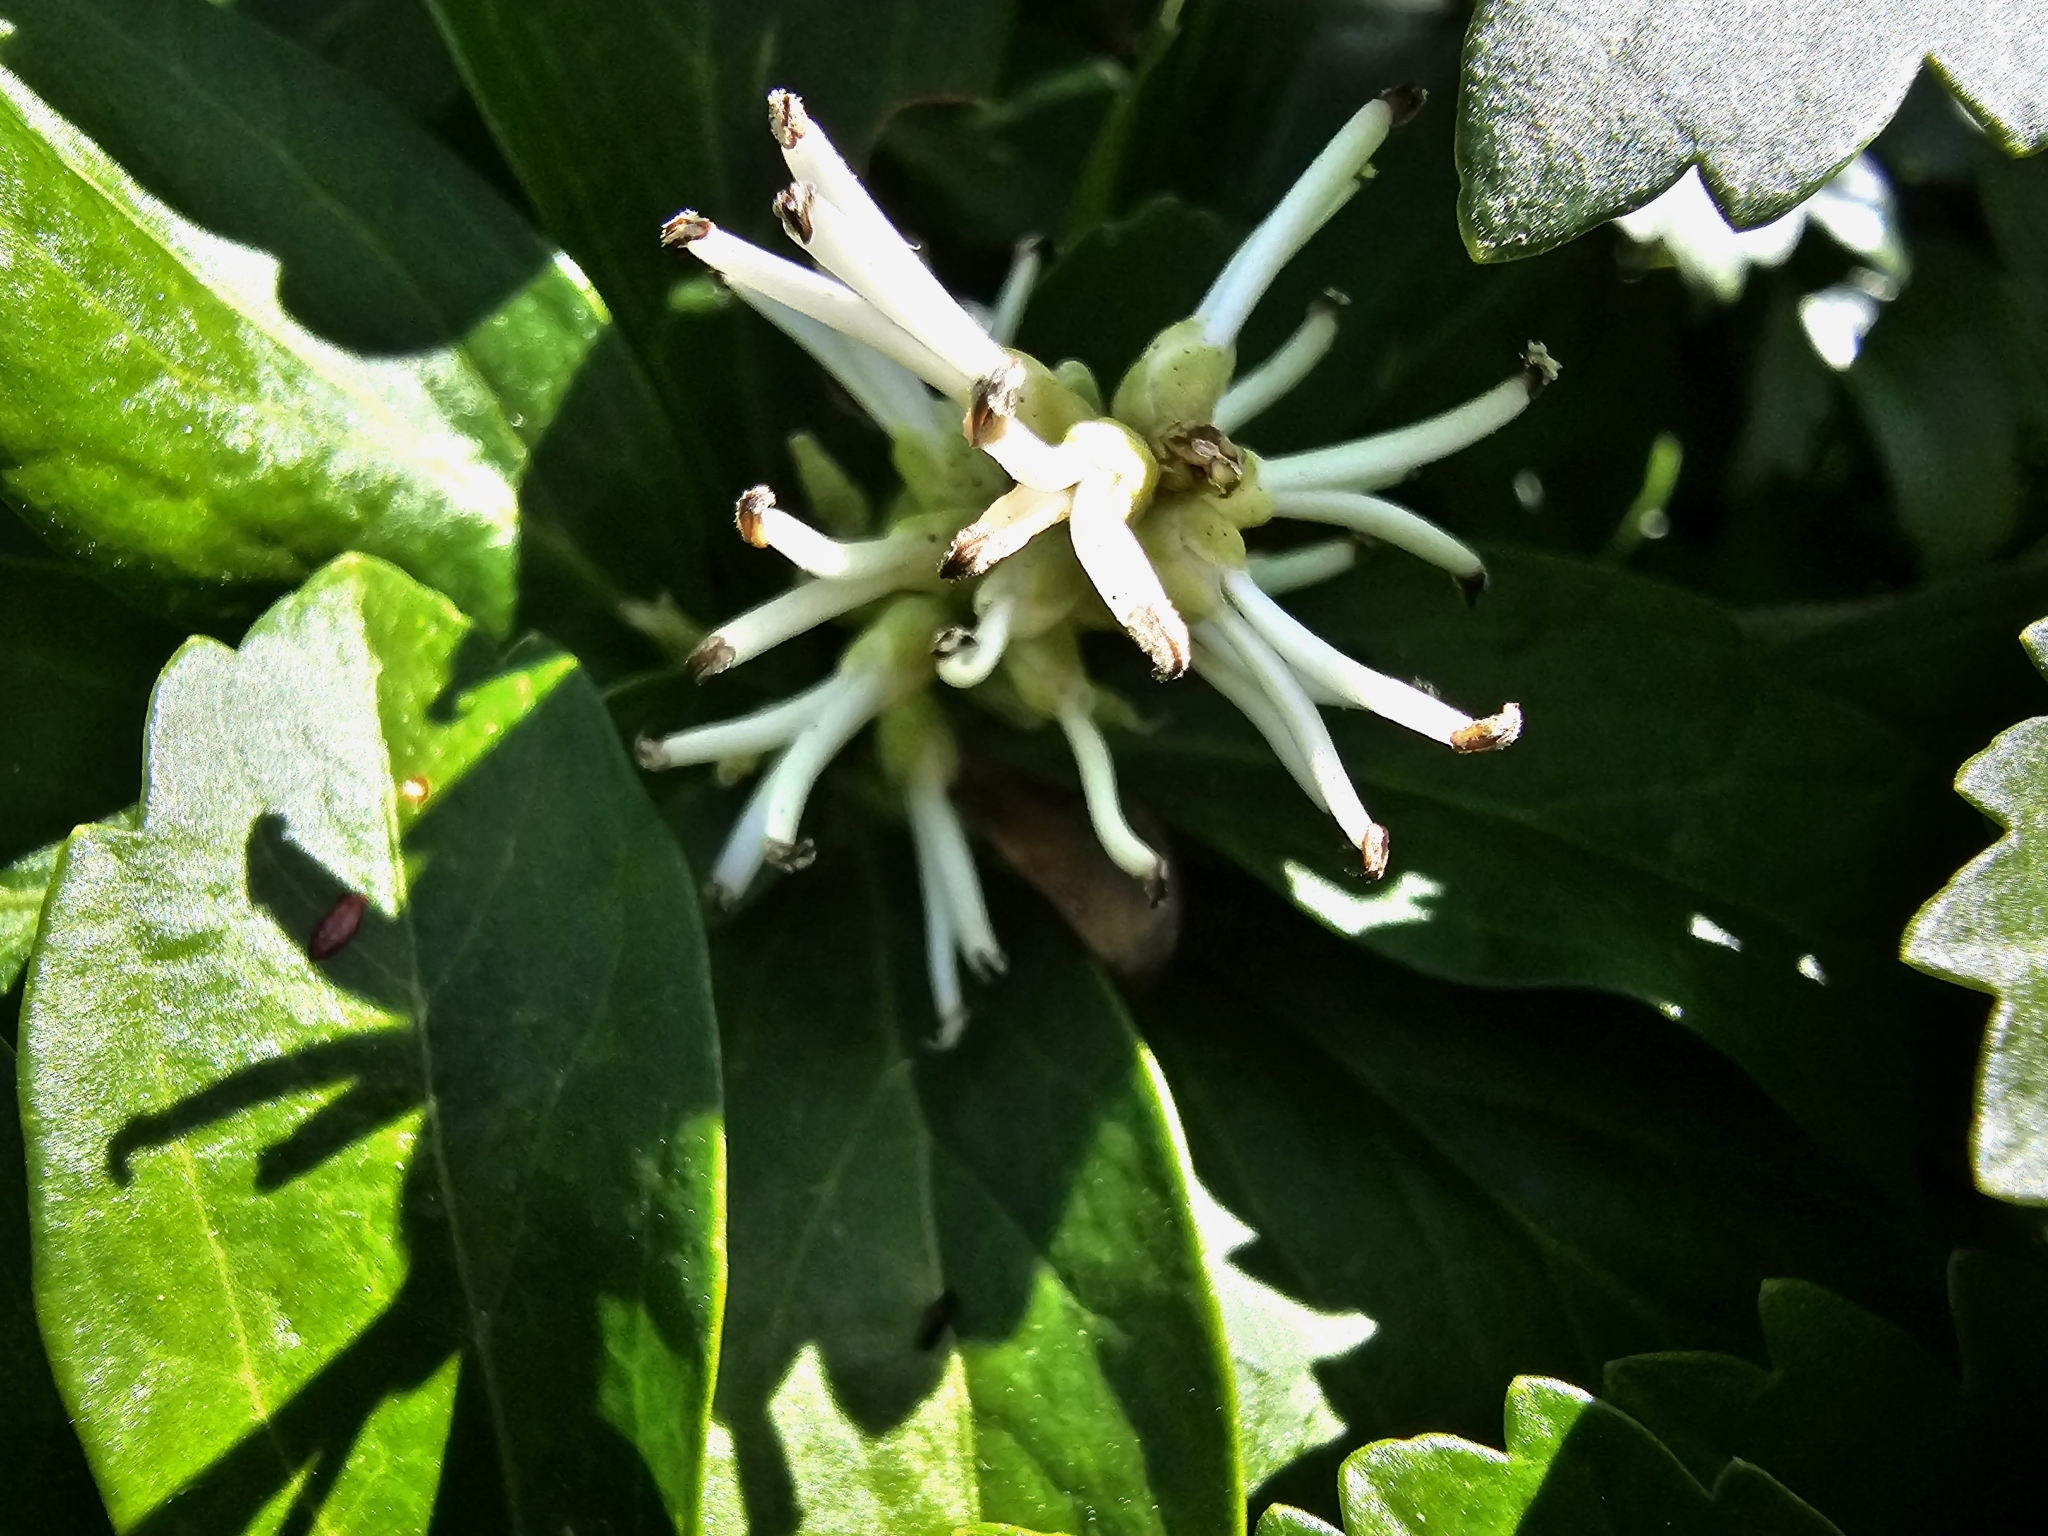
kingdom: Plantae
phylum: Tracheophyta
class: Magnoliopsida
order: Buxales
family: Buxaceae
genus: Pachysandra
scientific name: Pachysandra terminalis
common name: Japanese pachysandra
